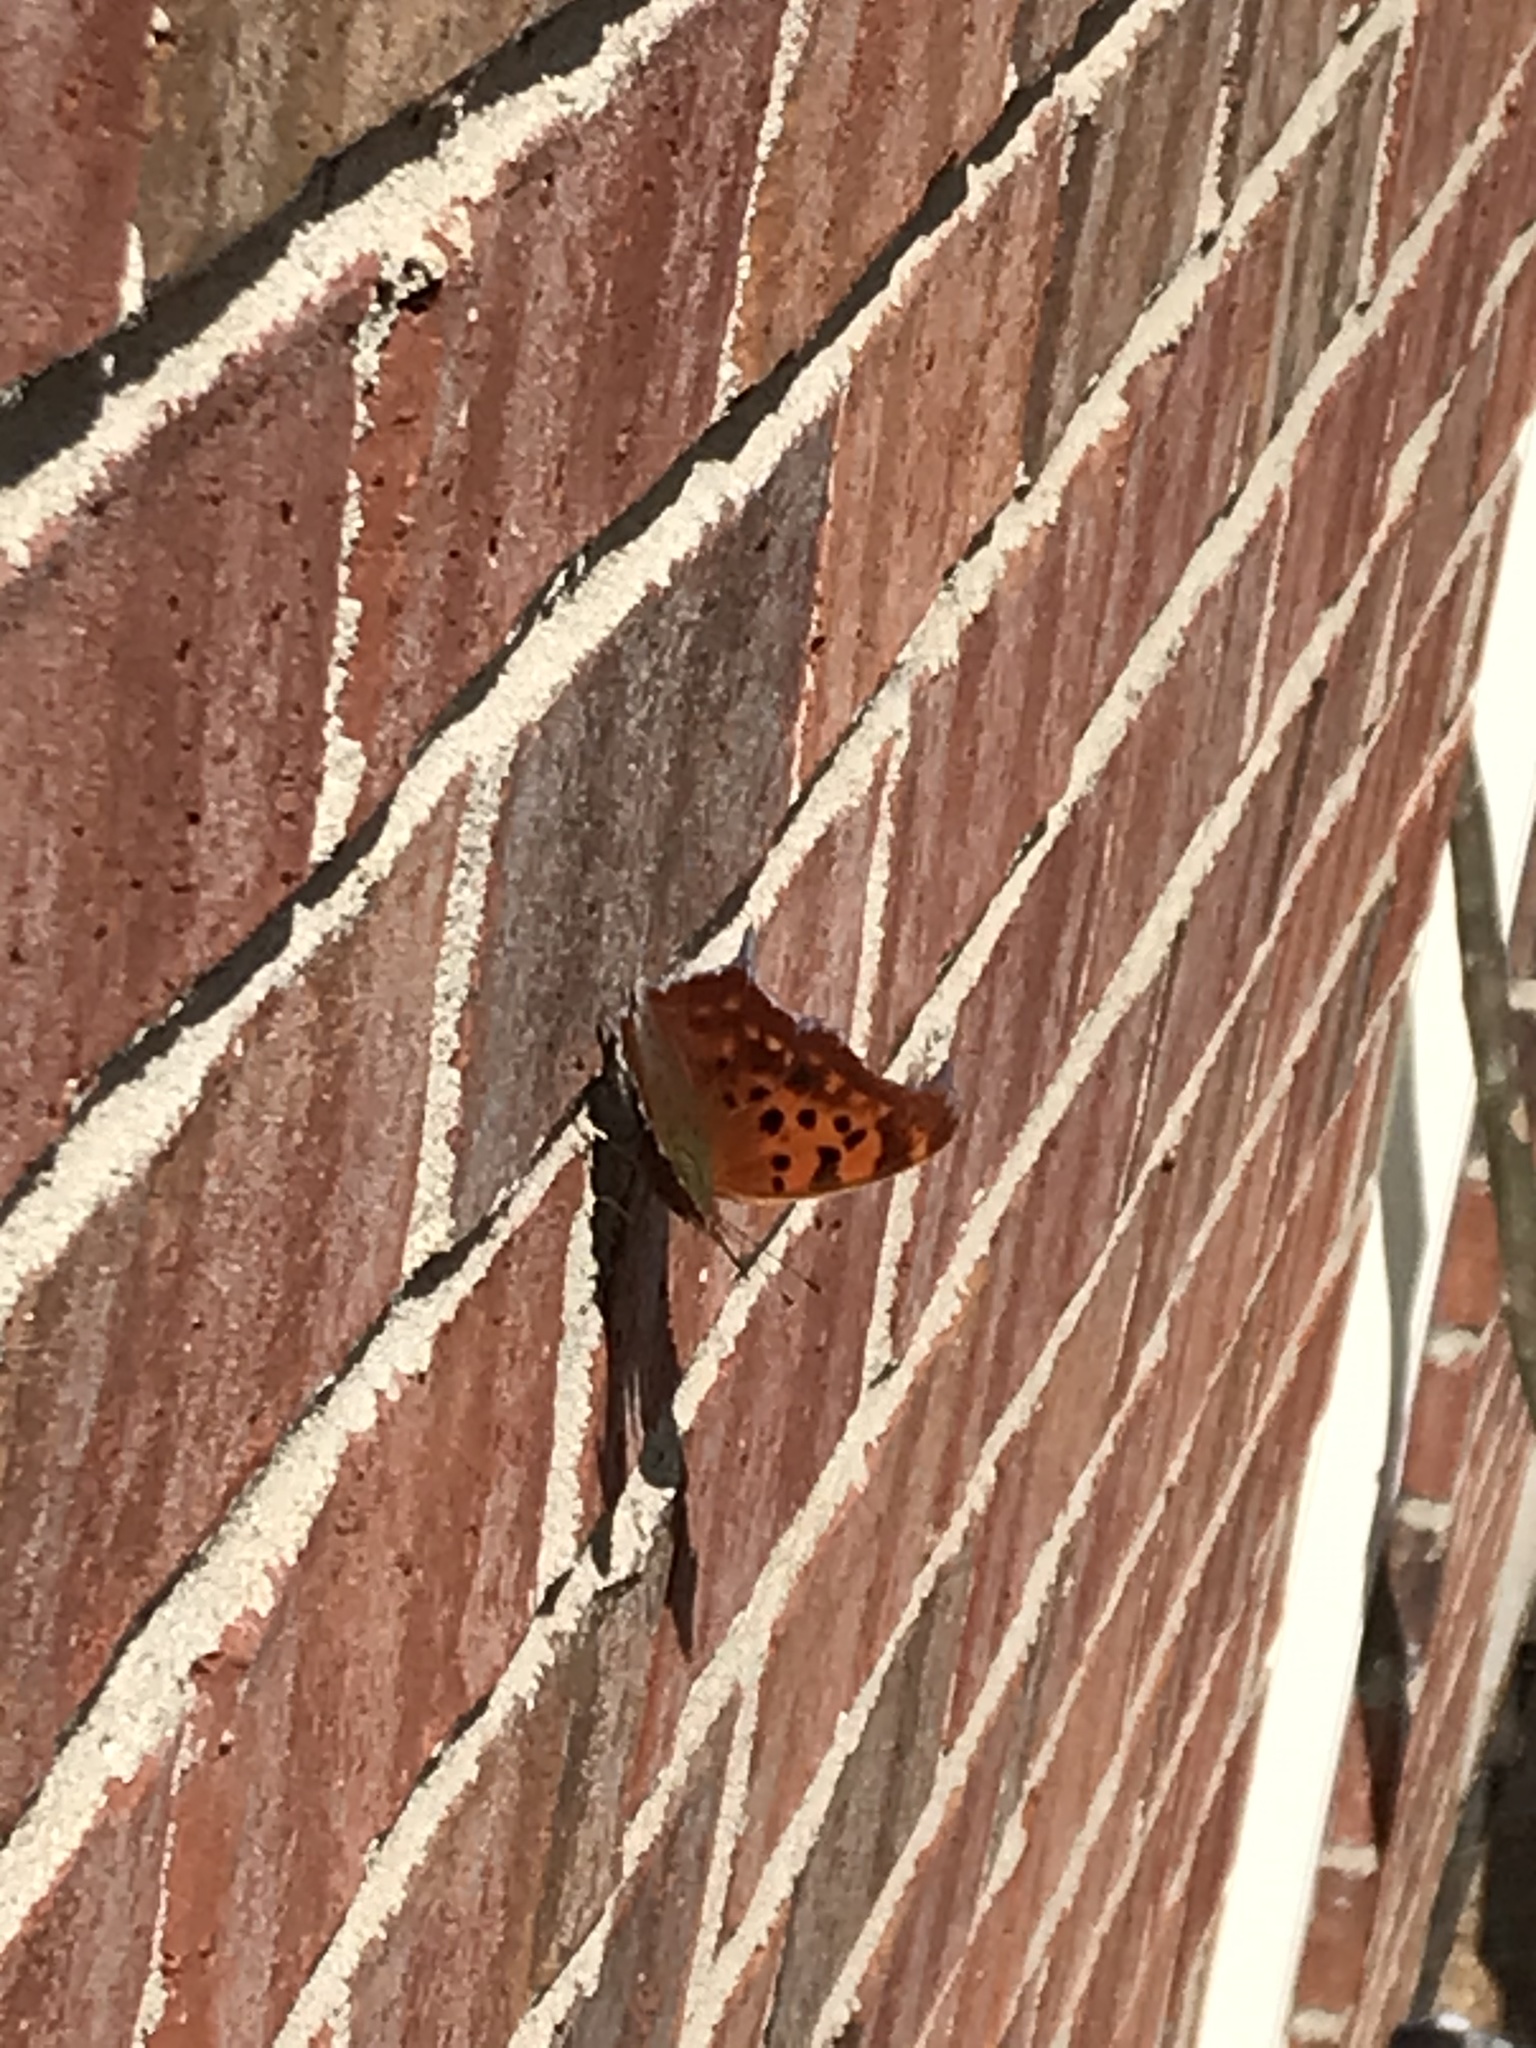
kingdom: Animalia
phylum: Arthropoda
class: Insecta
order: Lepidoptera
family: Nymphalidae
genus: Polygonia
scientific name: Polygonia interrogationis
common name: Question mark
